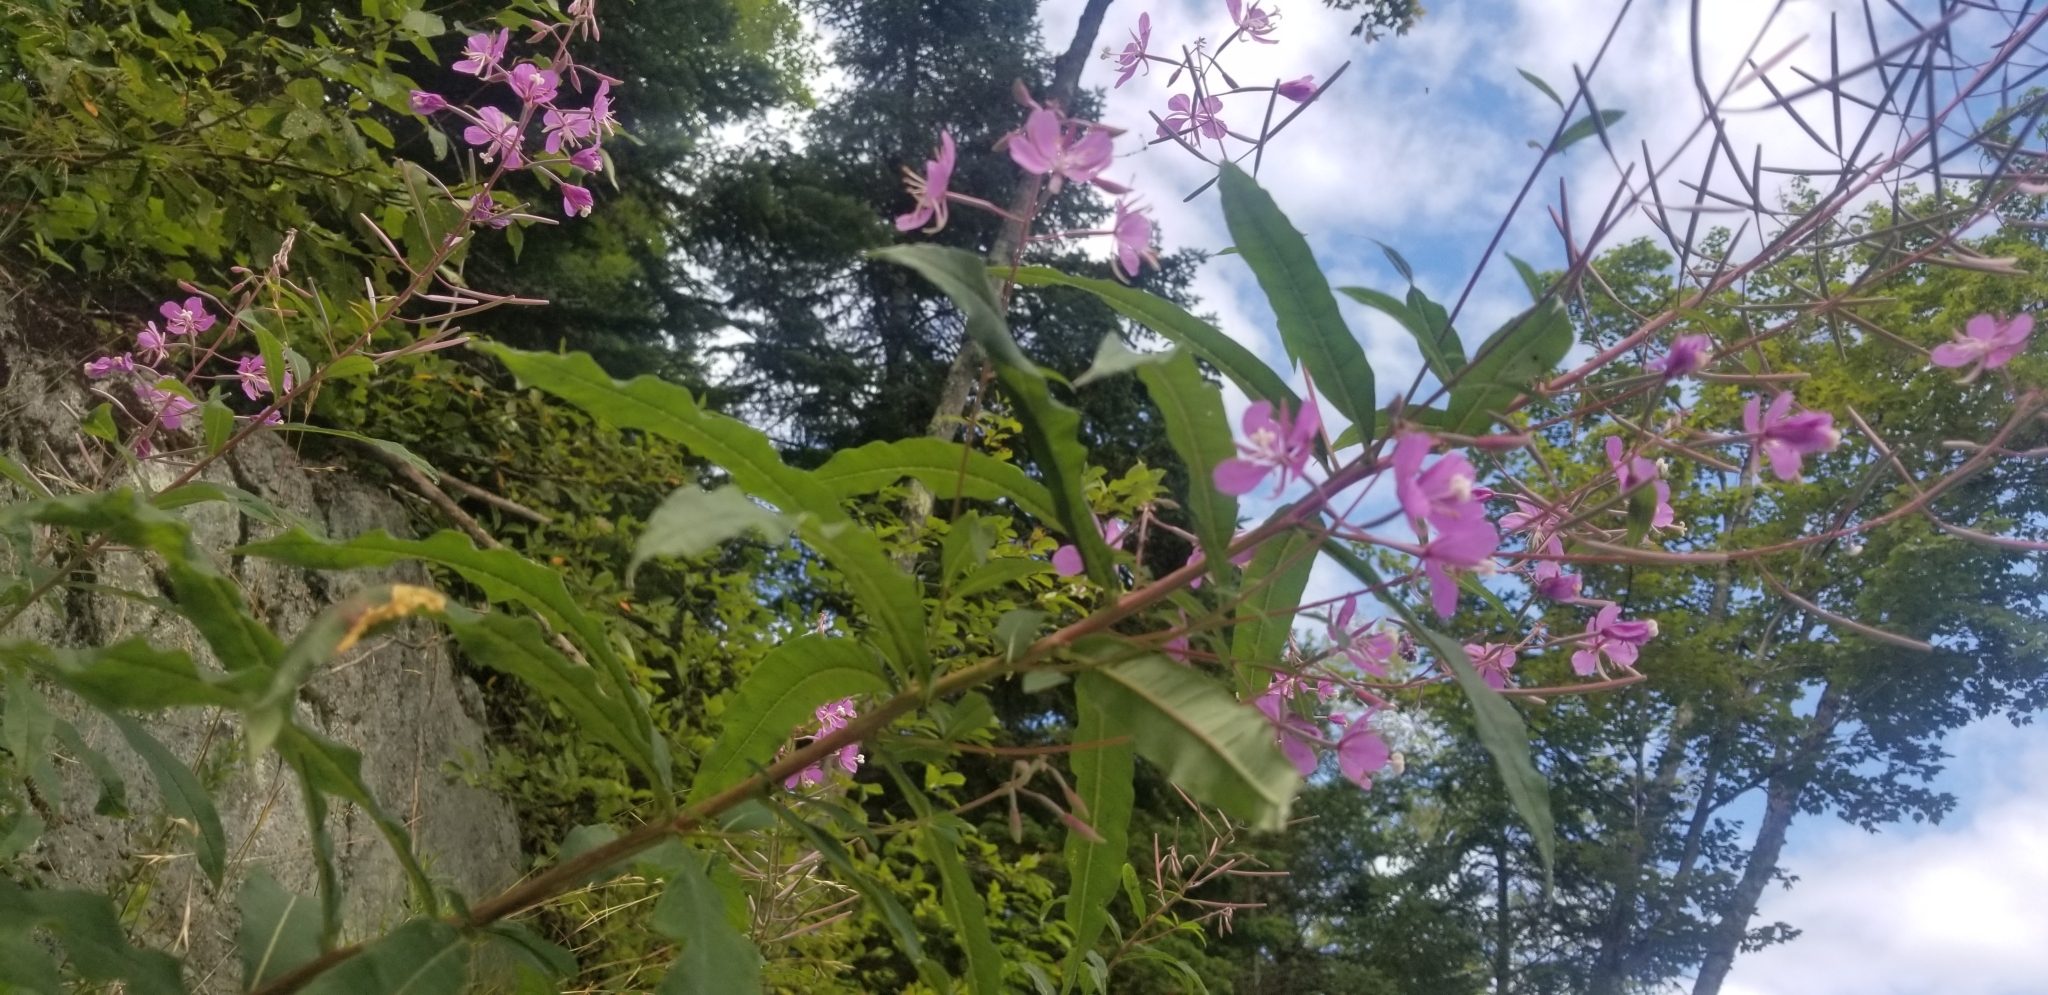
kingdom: Plantae
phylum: Tracheophyta
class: Magnoliopsida
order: Myrtales
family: Onagraceae
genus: Chamaenerion
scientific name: Chamaenerion angustifolium
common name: Fireweed
